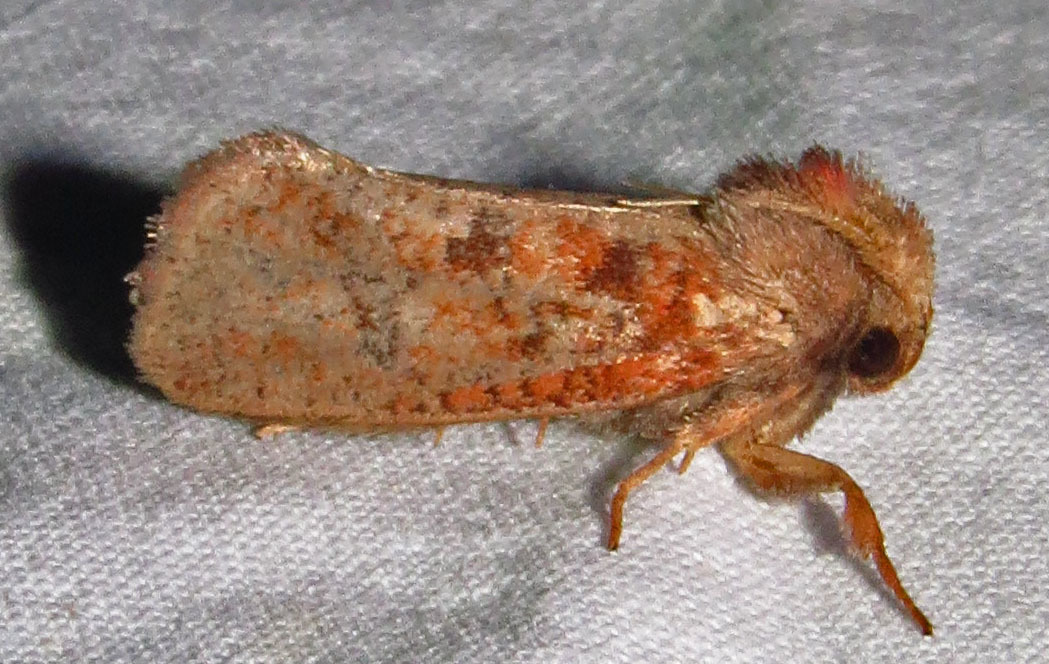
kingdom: Animalia
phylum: Arthropoda
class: Insecta
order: Lepidoptera
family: Tineidae
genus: Acrolophus
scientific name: Acrolophus plumifrontella
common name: Eastern grass tubeworm moth
